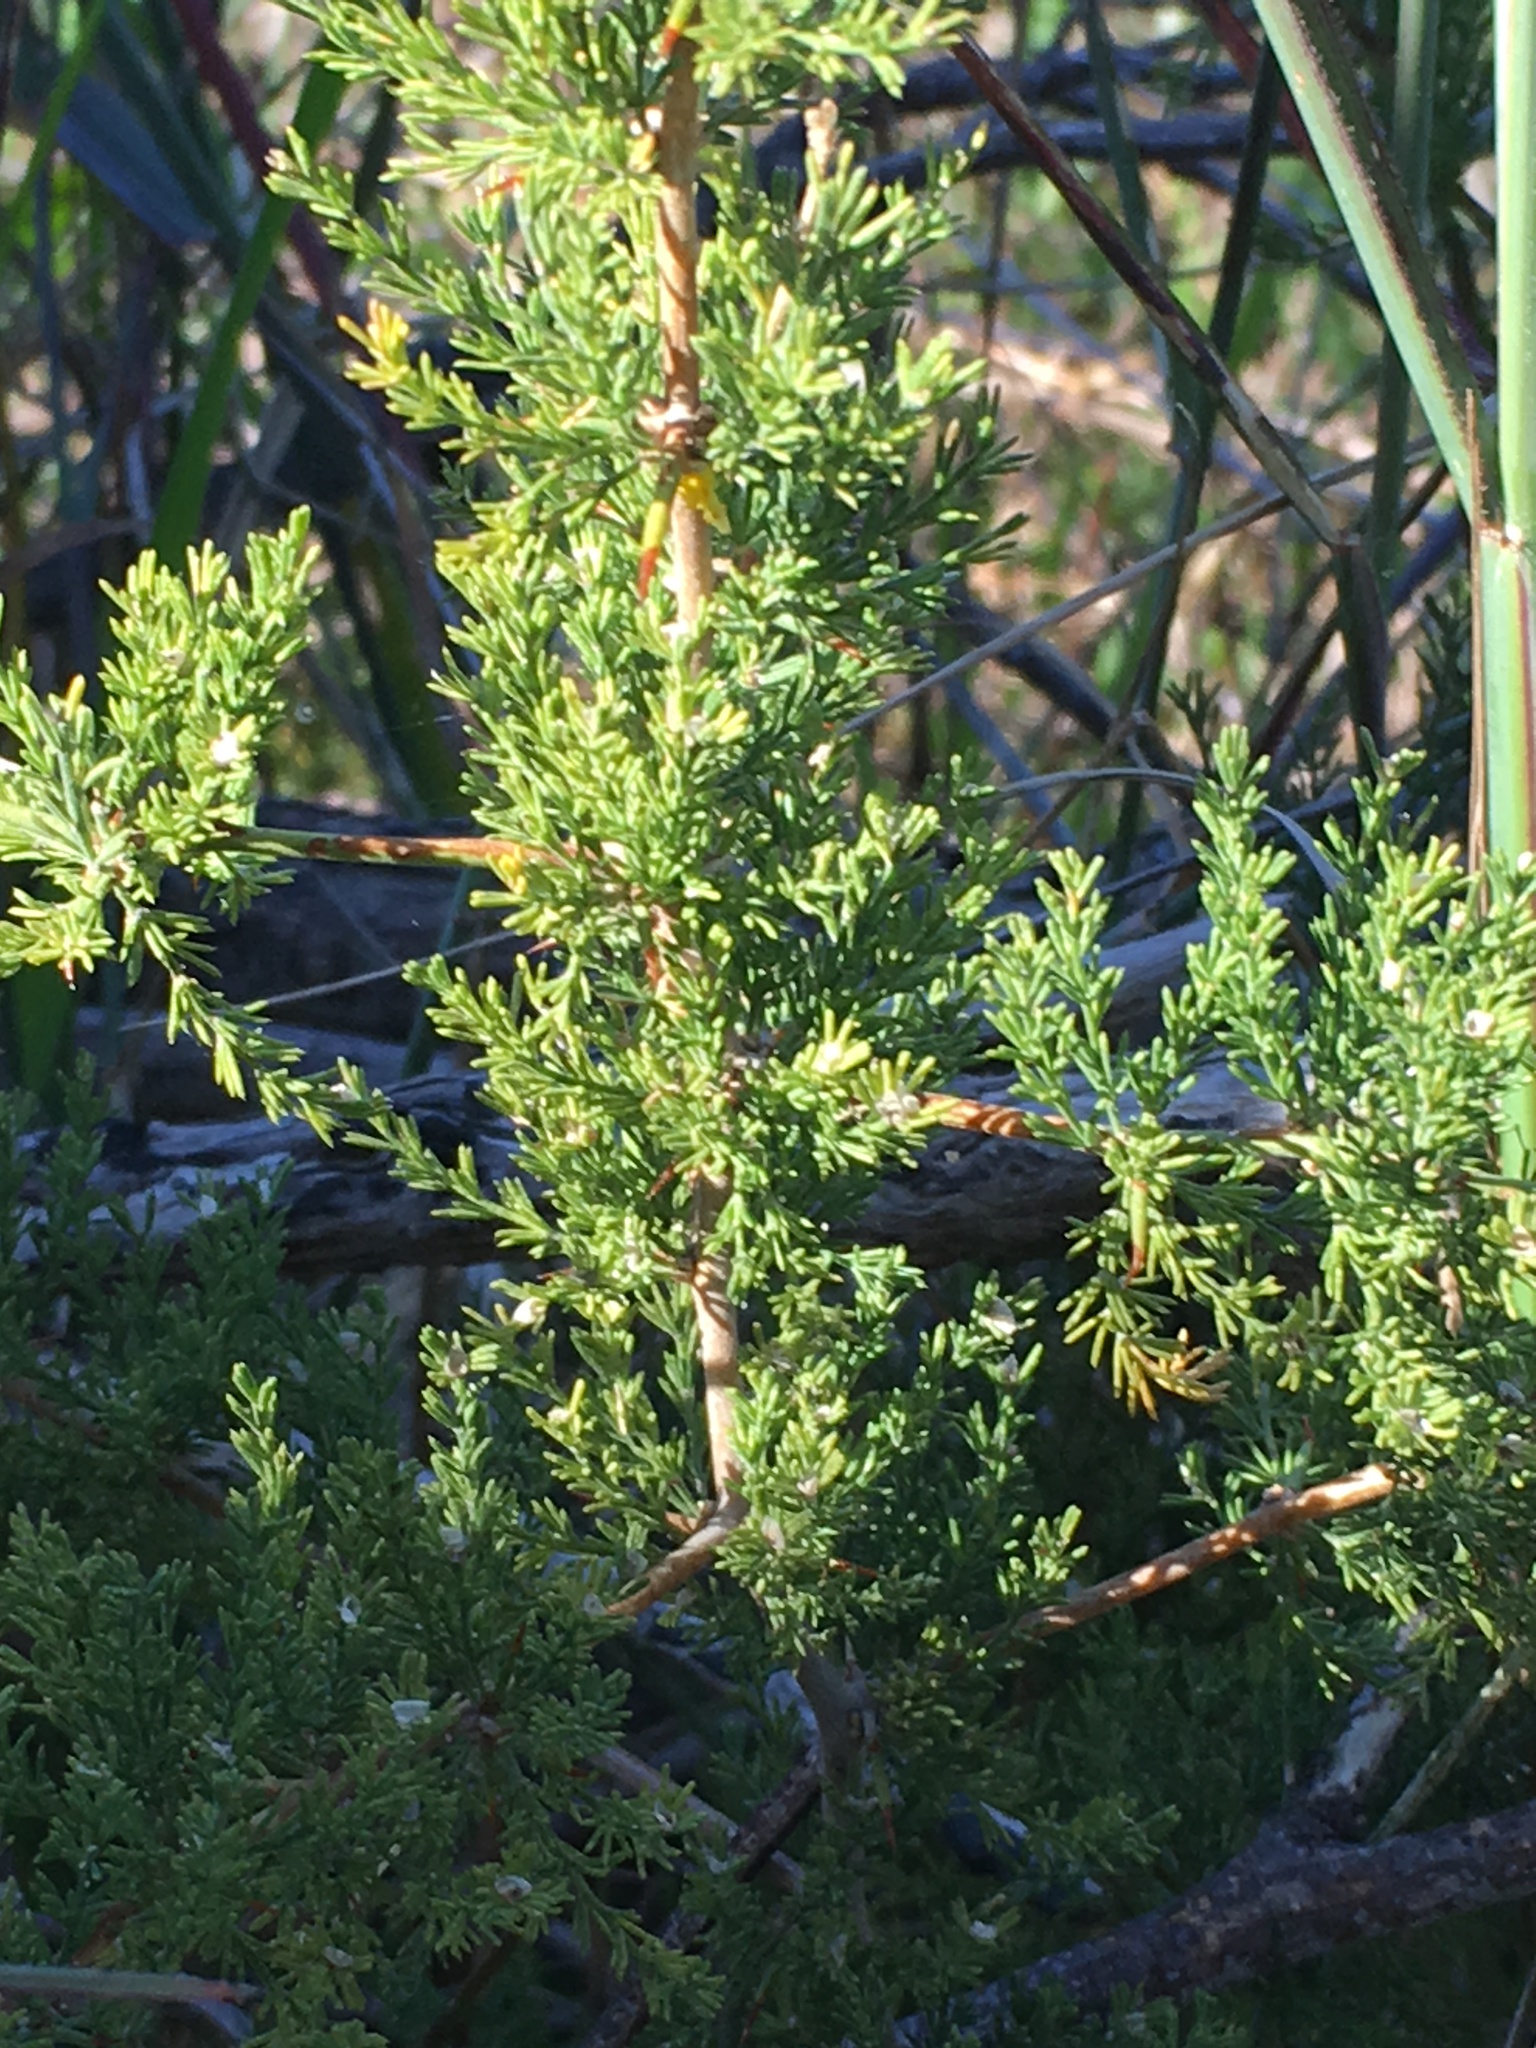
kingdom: Plantae
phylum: Tracheophyta
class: Liliopsida
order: Asparagales
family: Asparagaceae
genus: Asparagus
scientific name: Asparagus capensis
